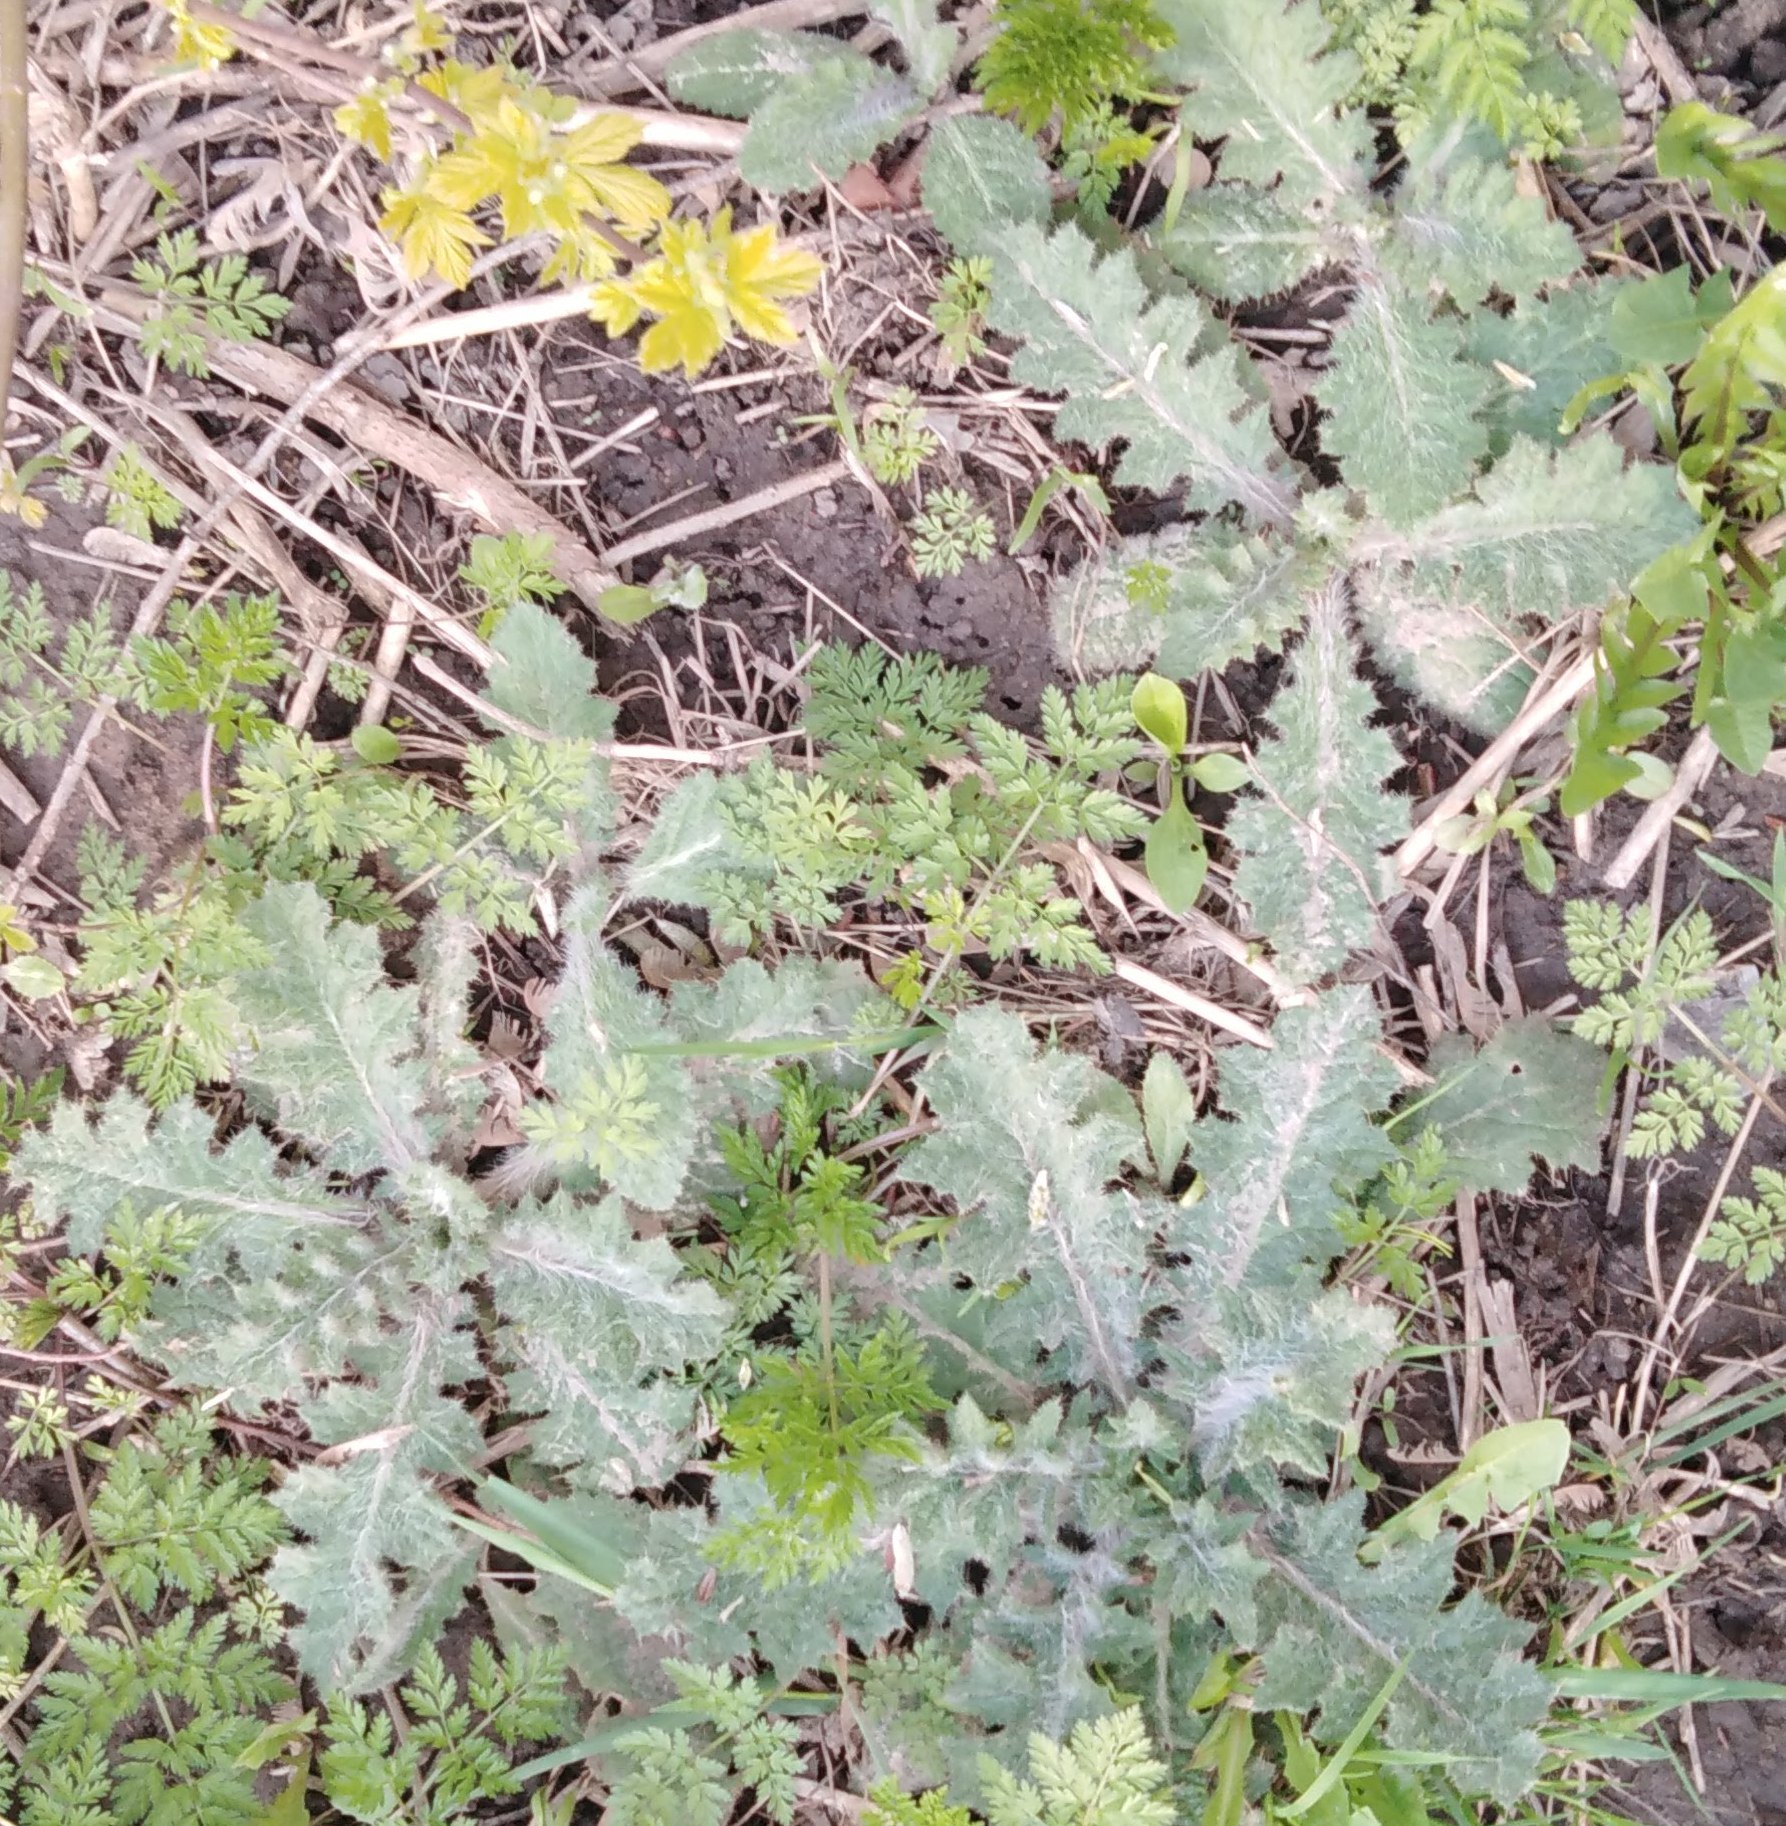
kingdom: Plantae
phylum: Tracheophyta
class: Magnoliopsida
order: Asterales
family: Asteraceae
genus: Cirsium
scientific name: Cirsium vulgare
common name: Bull thistle
